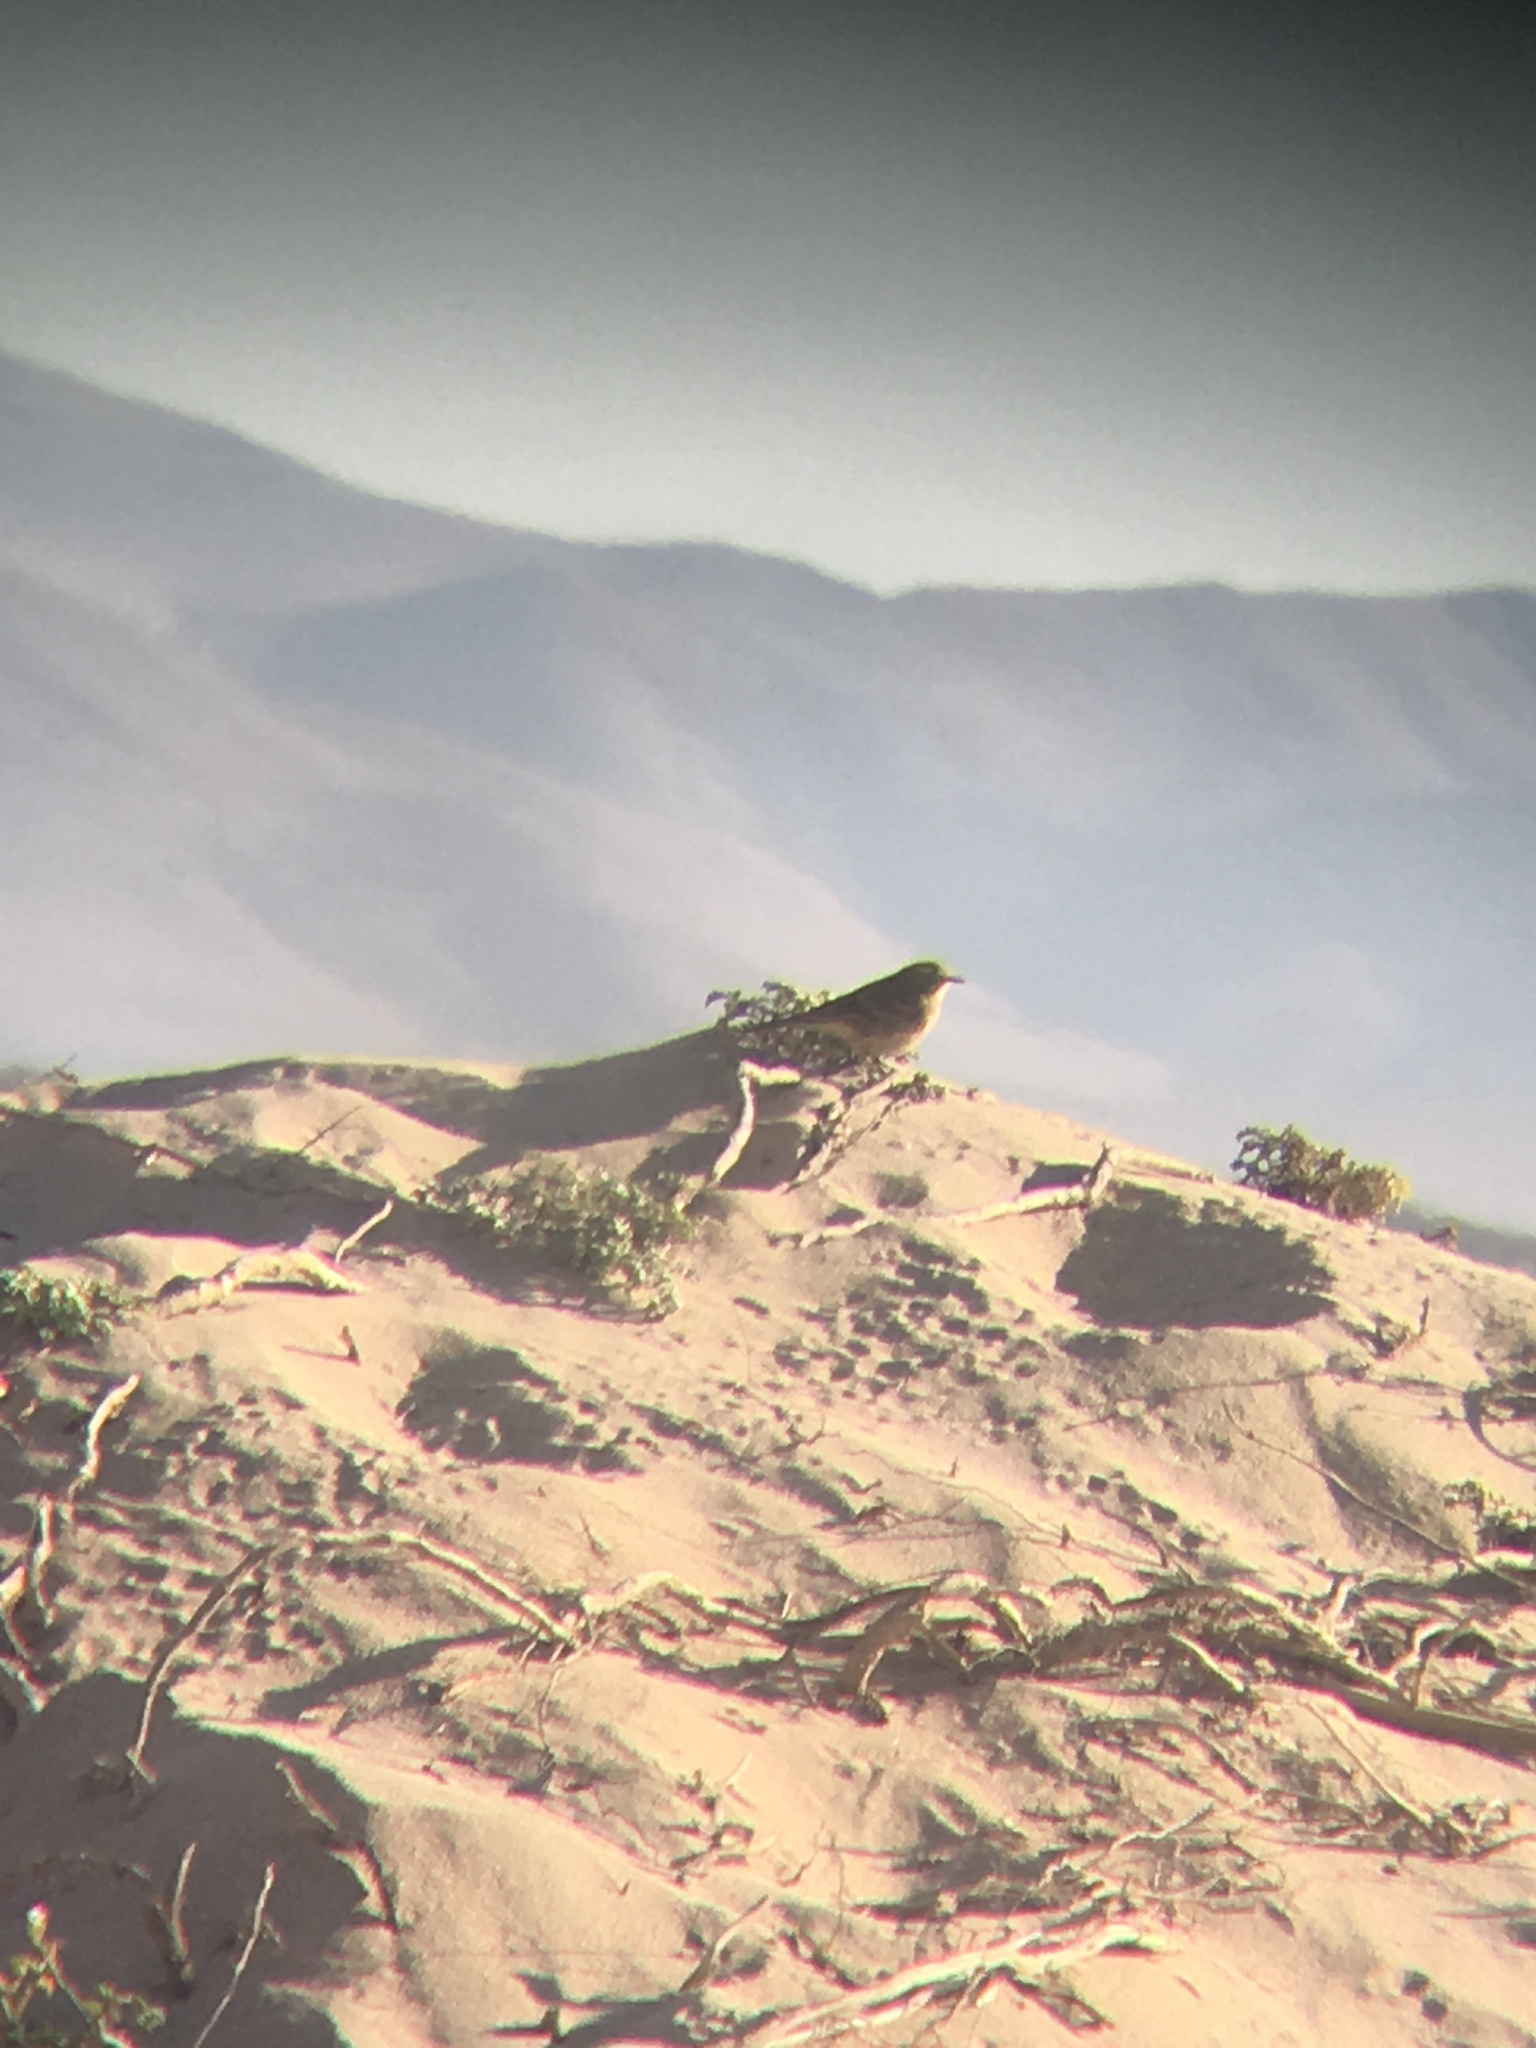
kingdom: Animalia
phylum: Chordata
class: Aves
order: Passeriformes
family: Motacillidae
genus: Anthus
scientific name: Anthus rubescens
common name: Buff-bellied pipit
